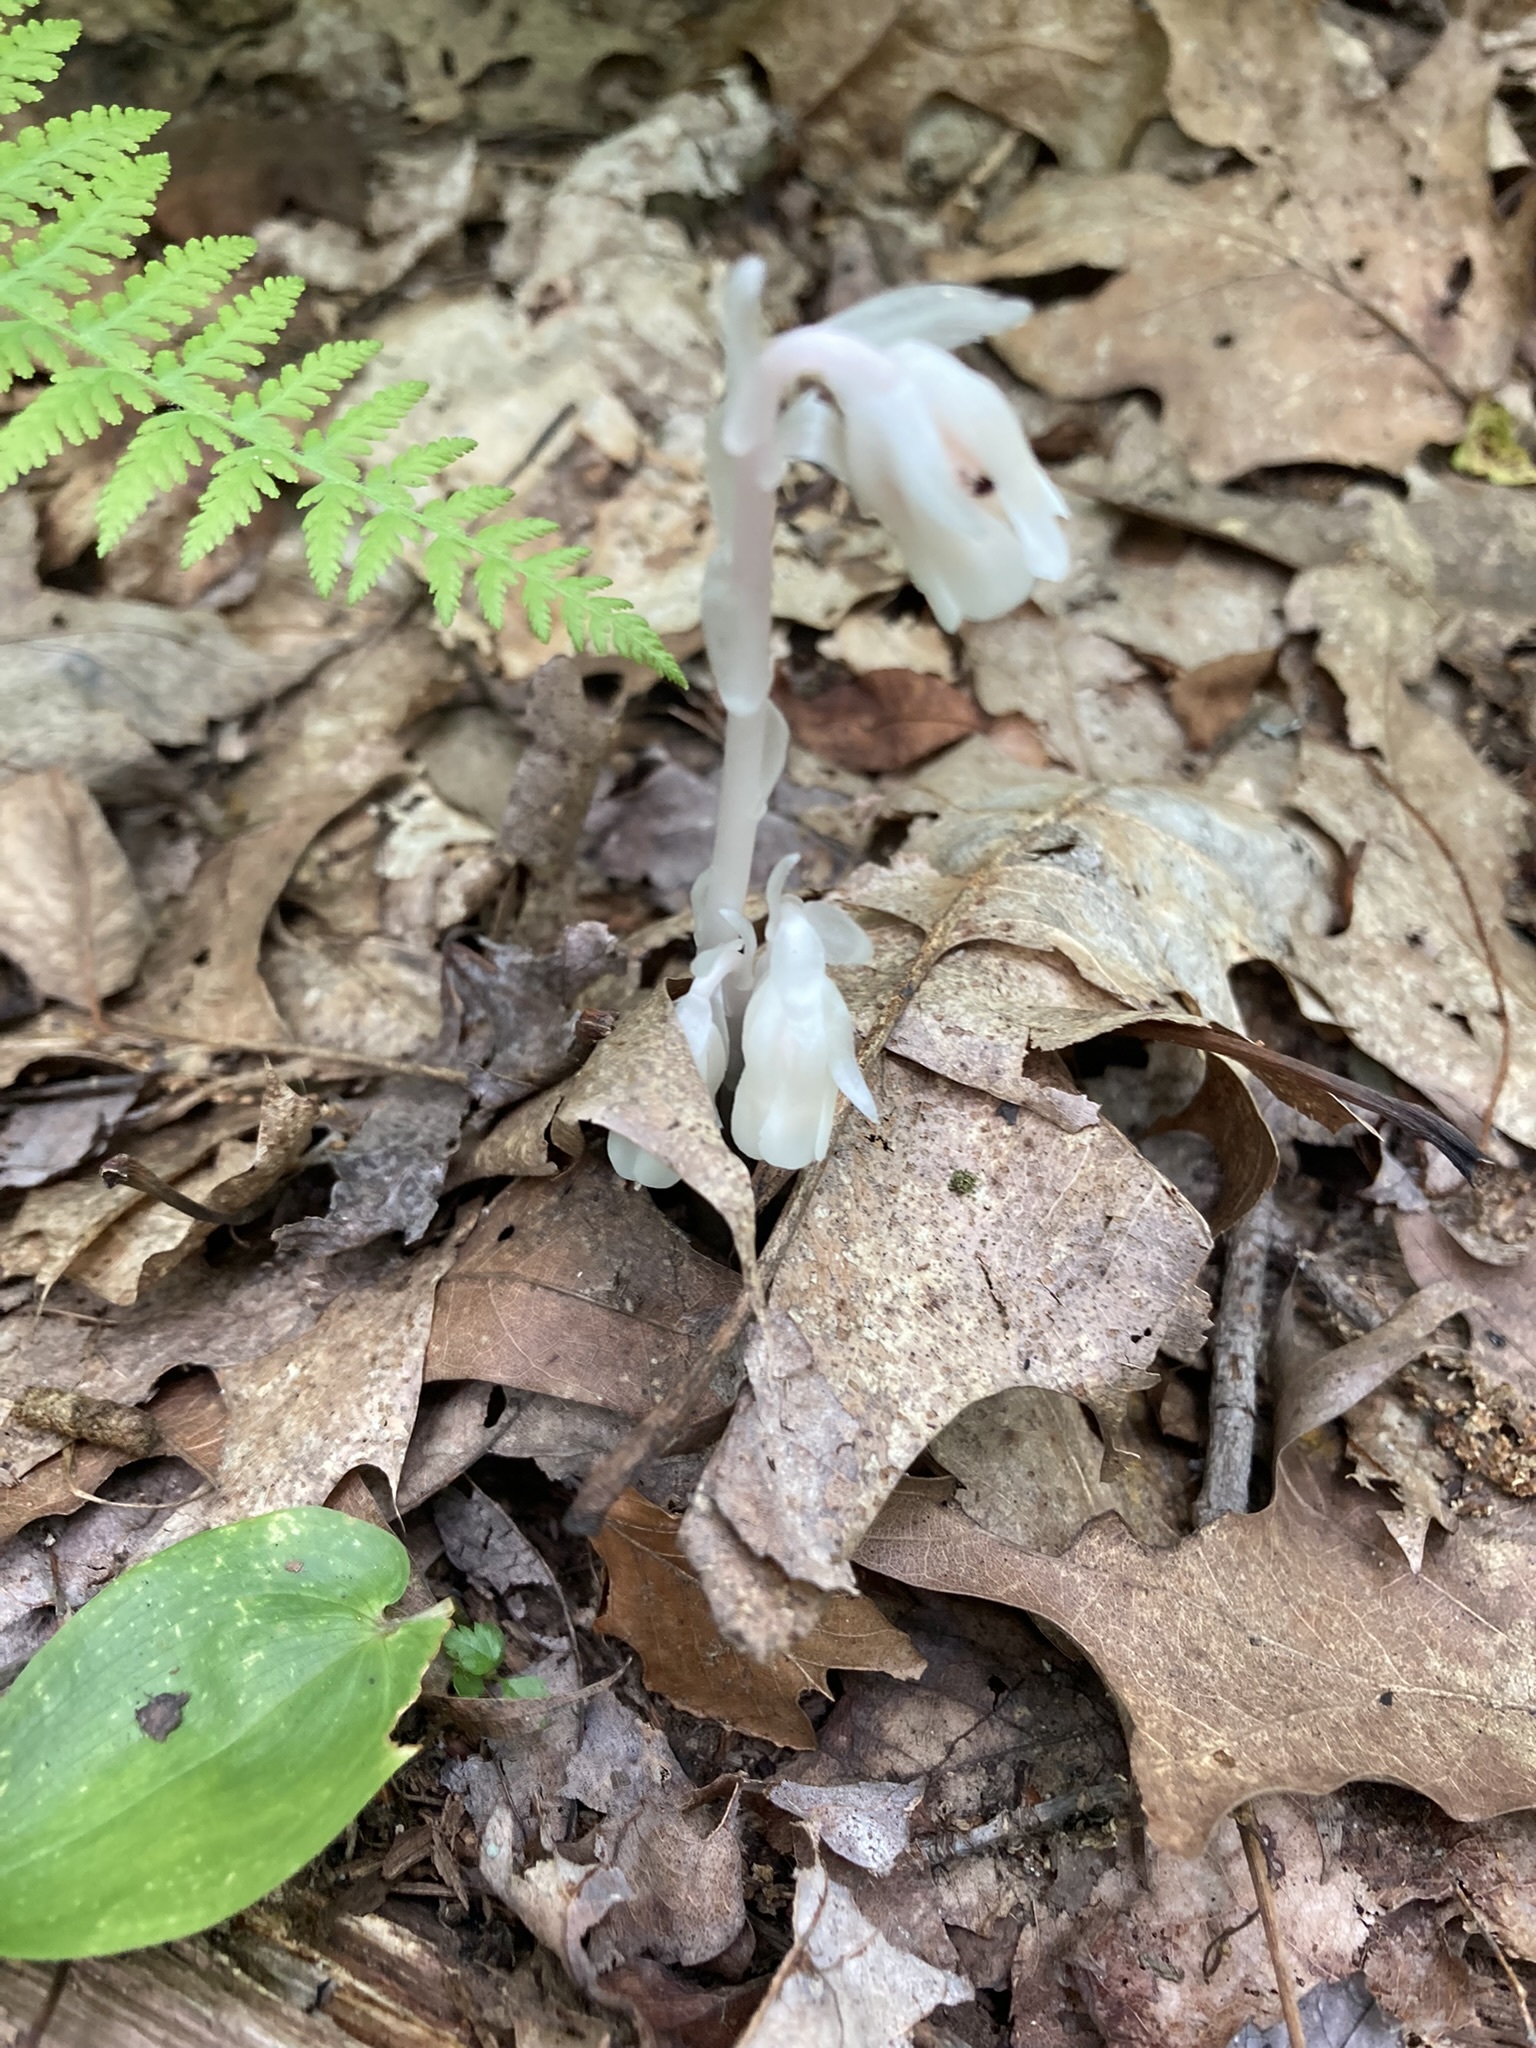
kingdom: Plantae
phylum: Tracheophyta
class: Magnoliopsida
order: Ericales
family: Ericaceae
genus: Monotropa
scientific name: Monotropa uniflora
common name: Convulsion root
